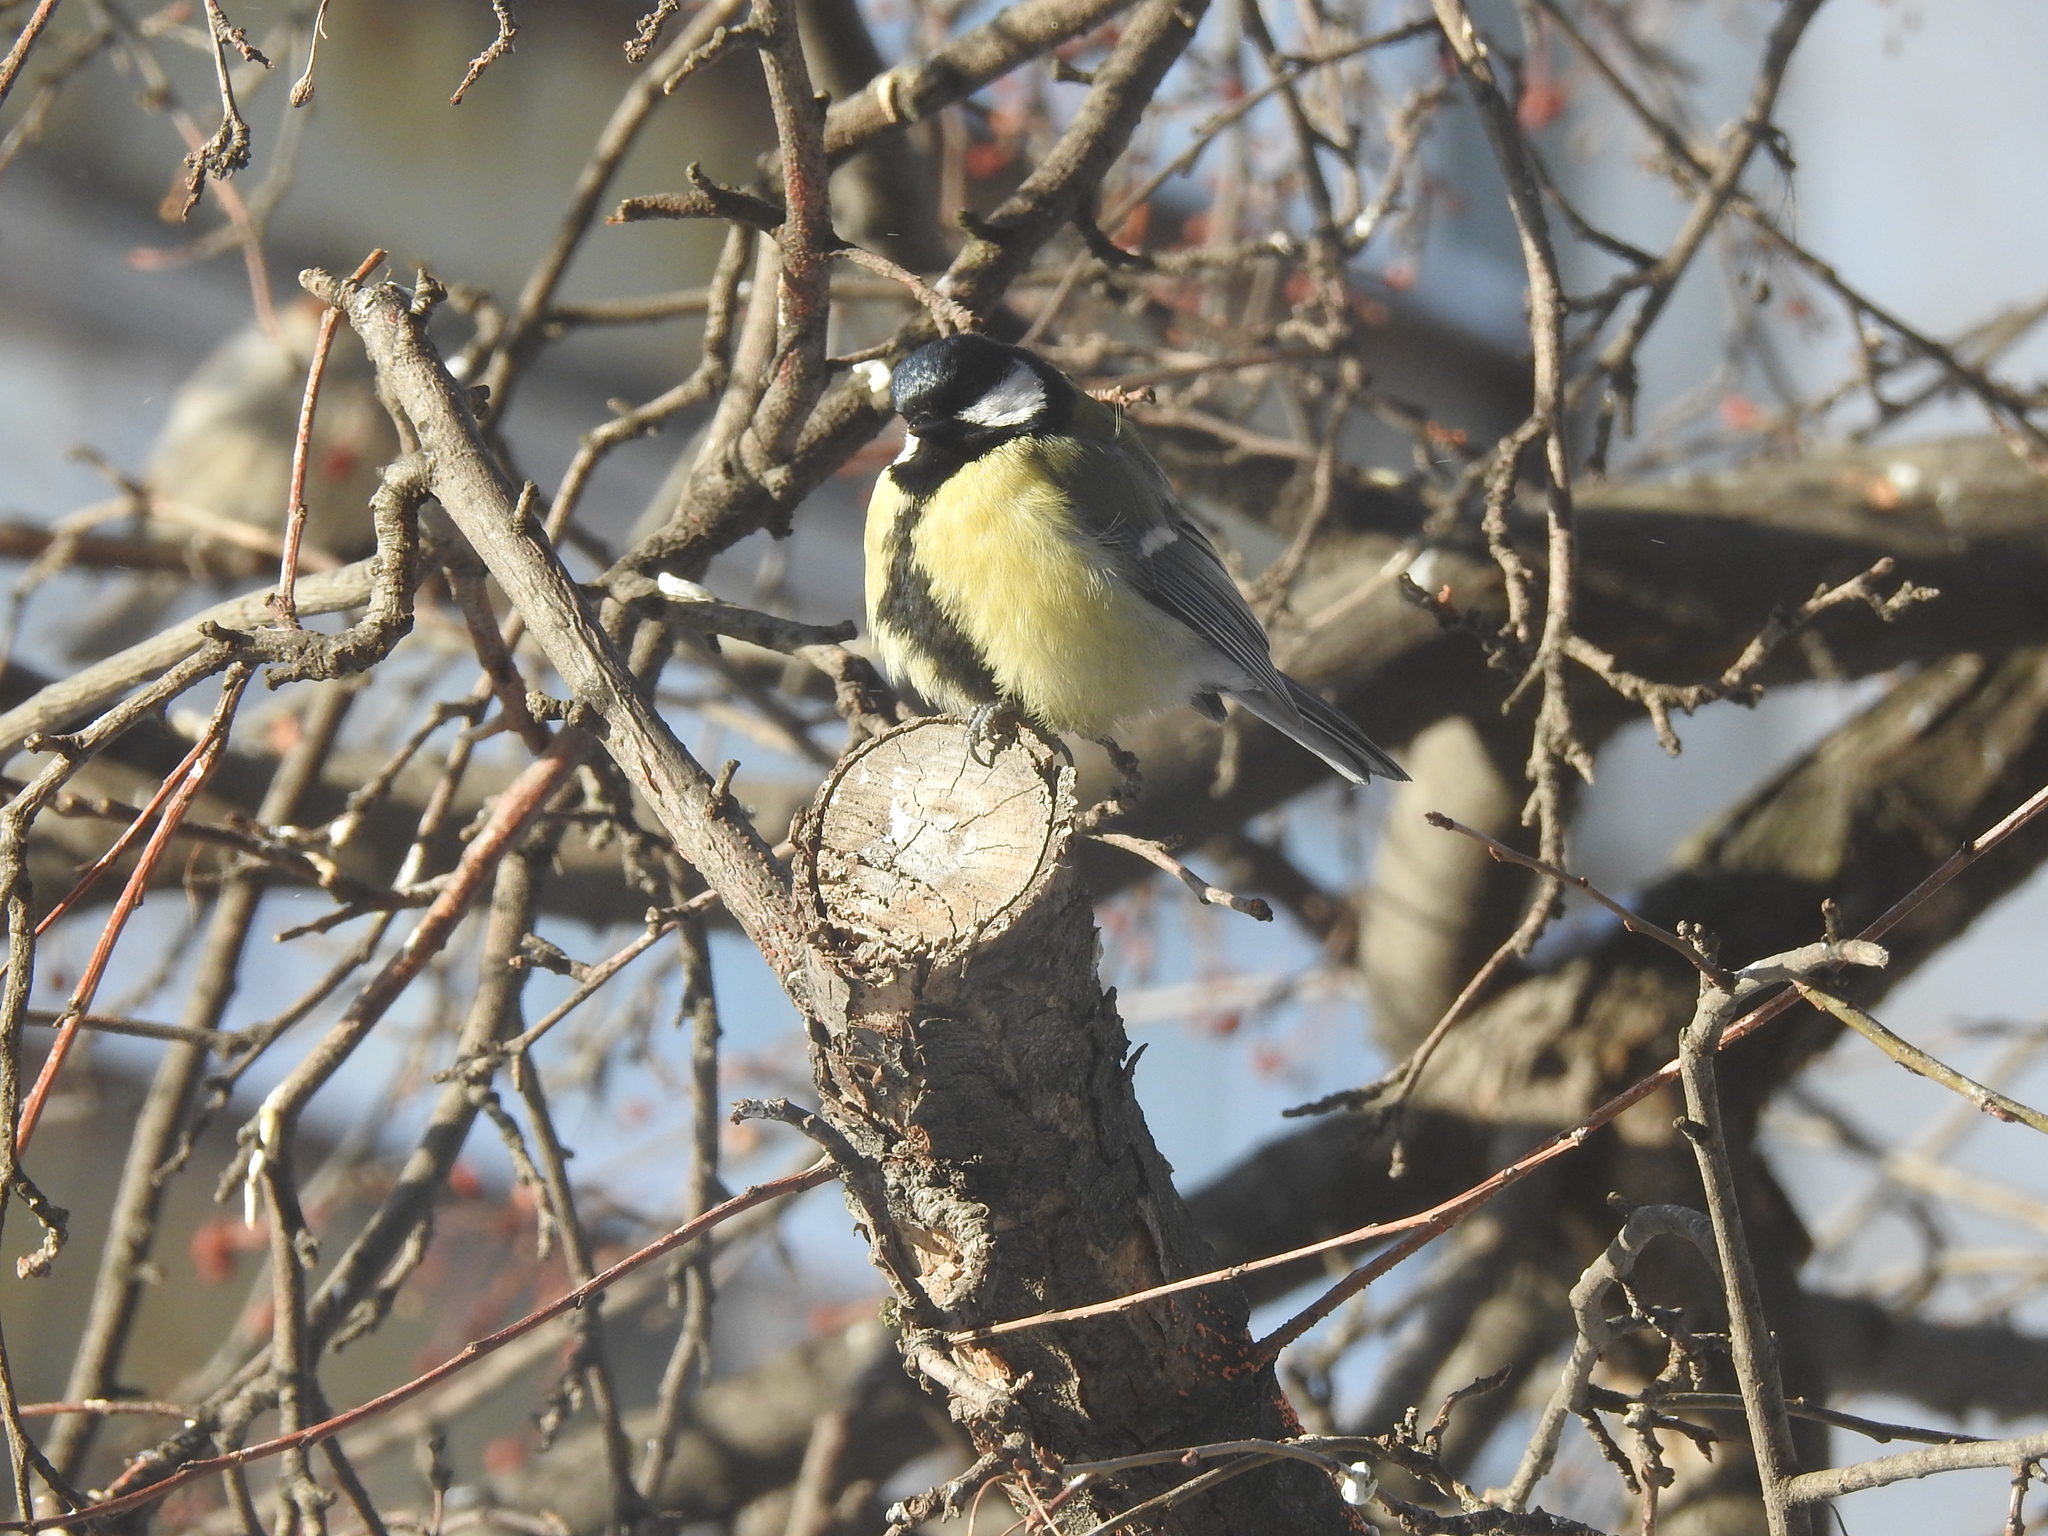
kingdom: Animalia
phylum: Chordata
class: Aves
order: Passeriformes
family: Paridae
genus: Parus
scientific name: Parus major
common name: Great tit
